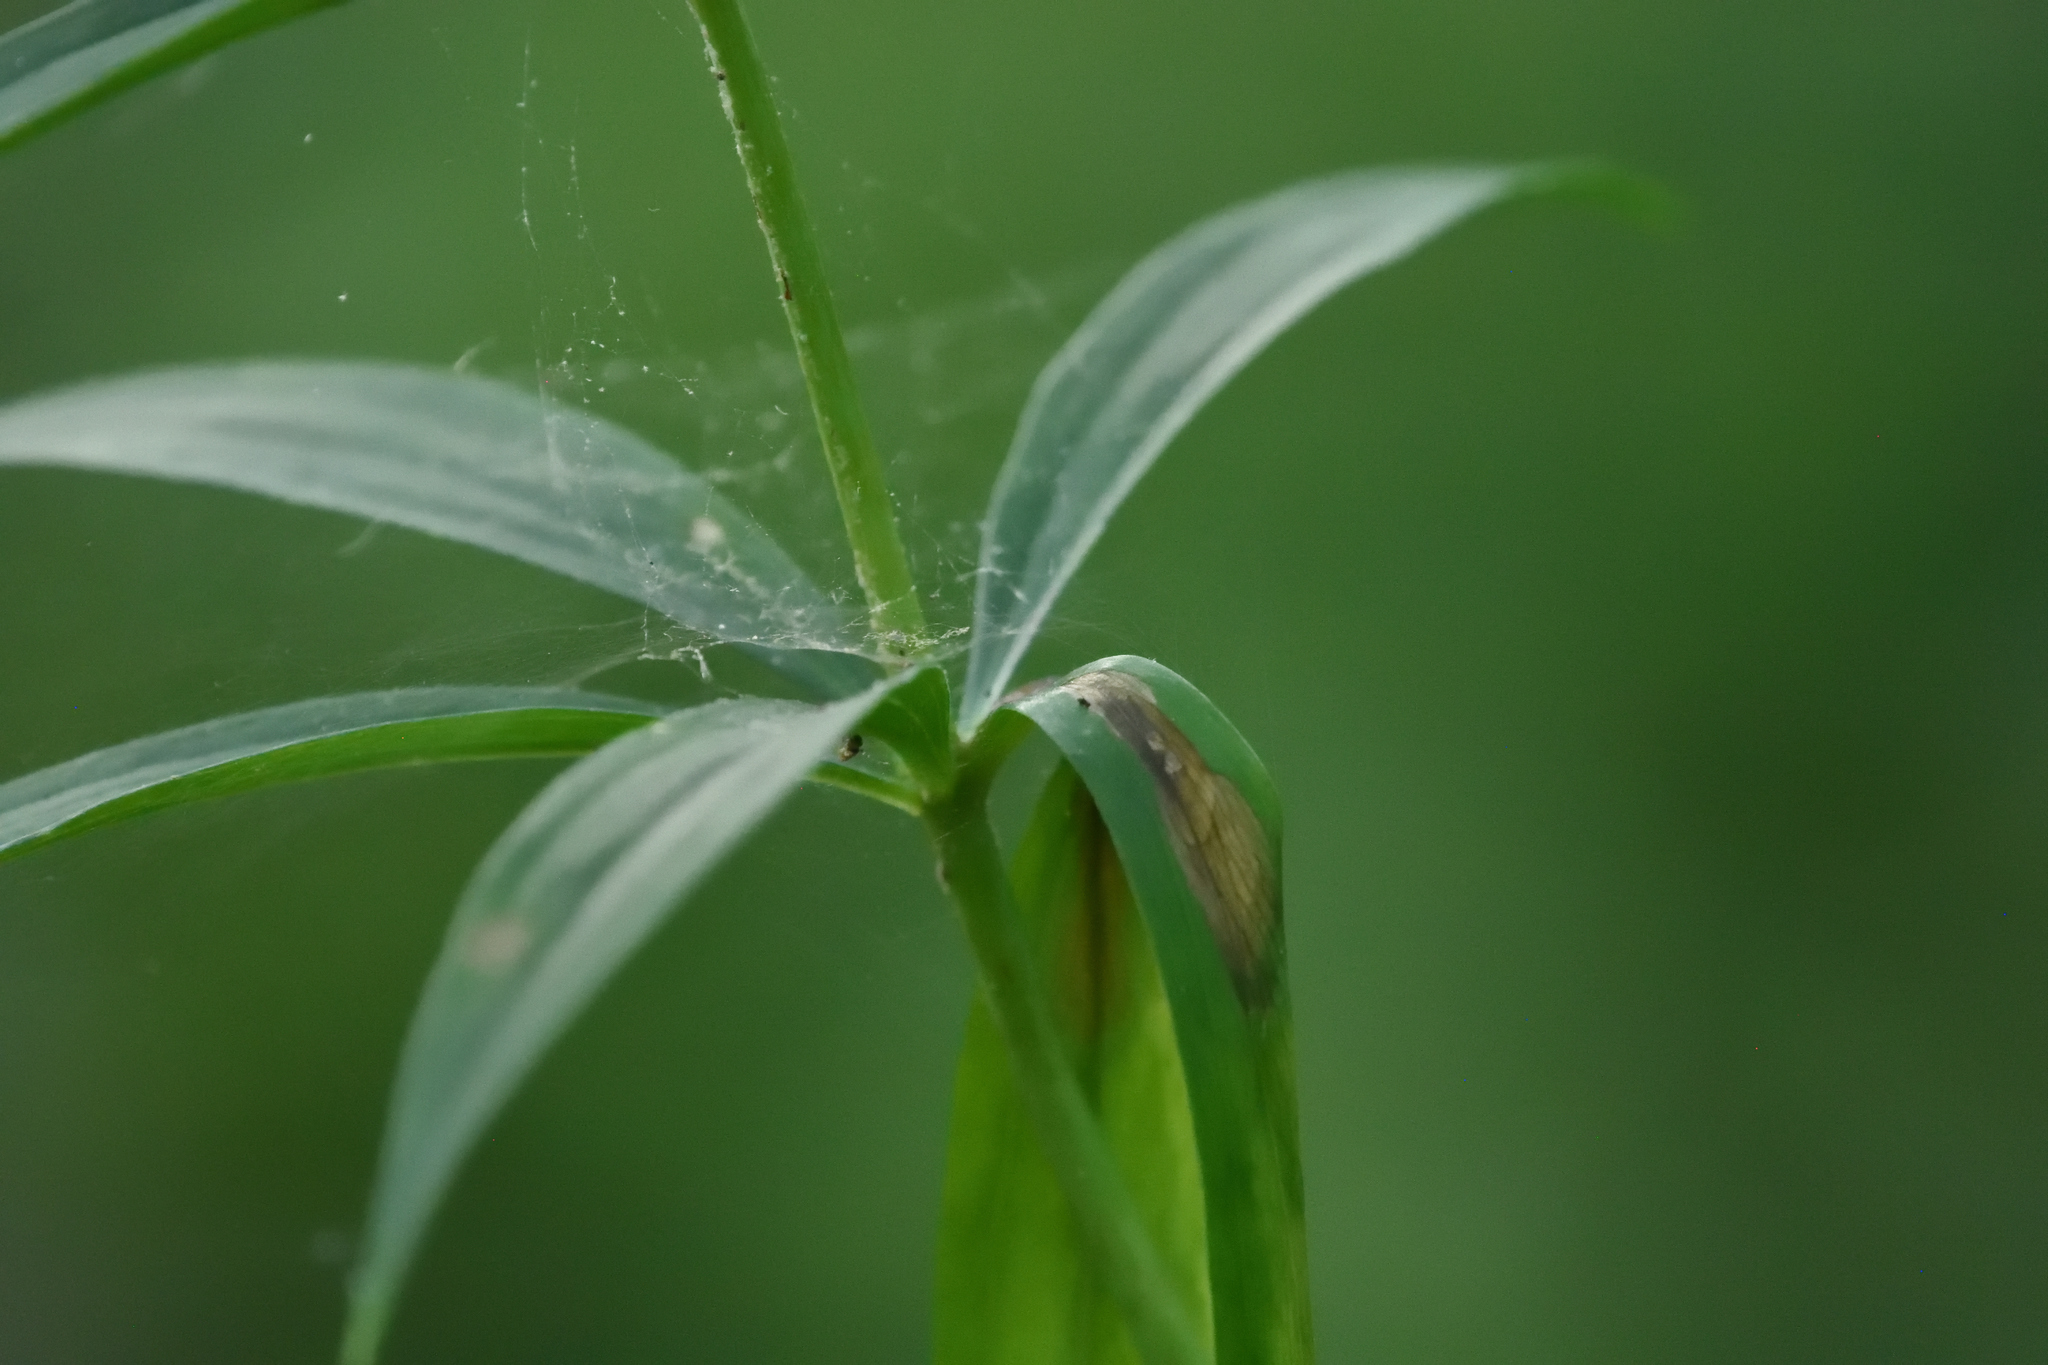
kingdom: Plantae
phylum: Tracheophyta
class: Liliopsida
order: Liliales
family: Liliaceae
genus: Lilium
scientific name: Lilium superbum
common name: American turk's-cap lily
